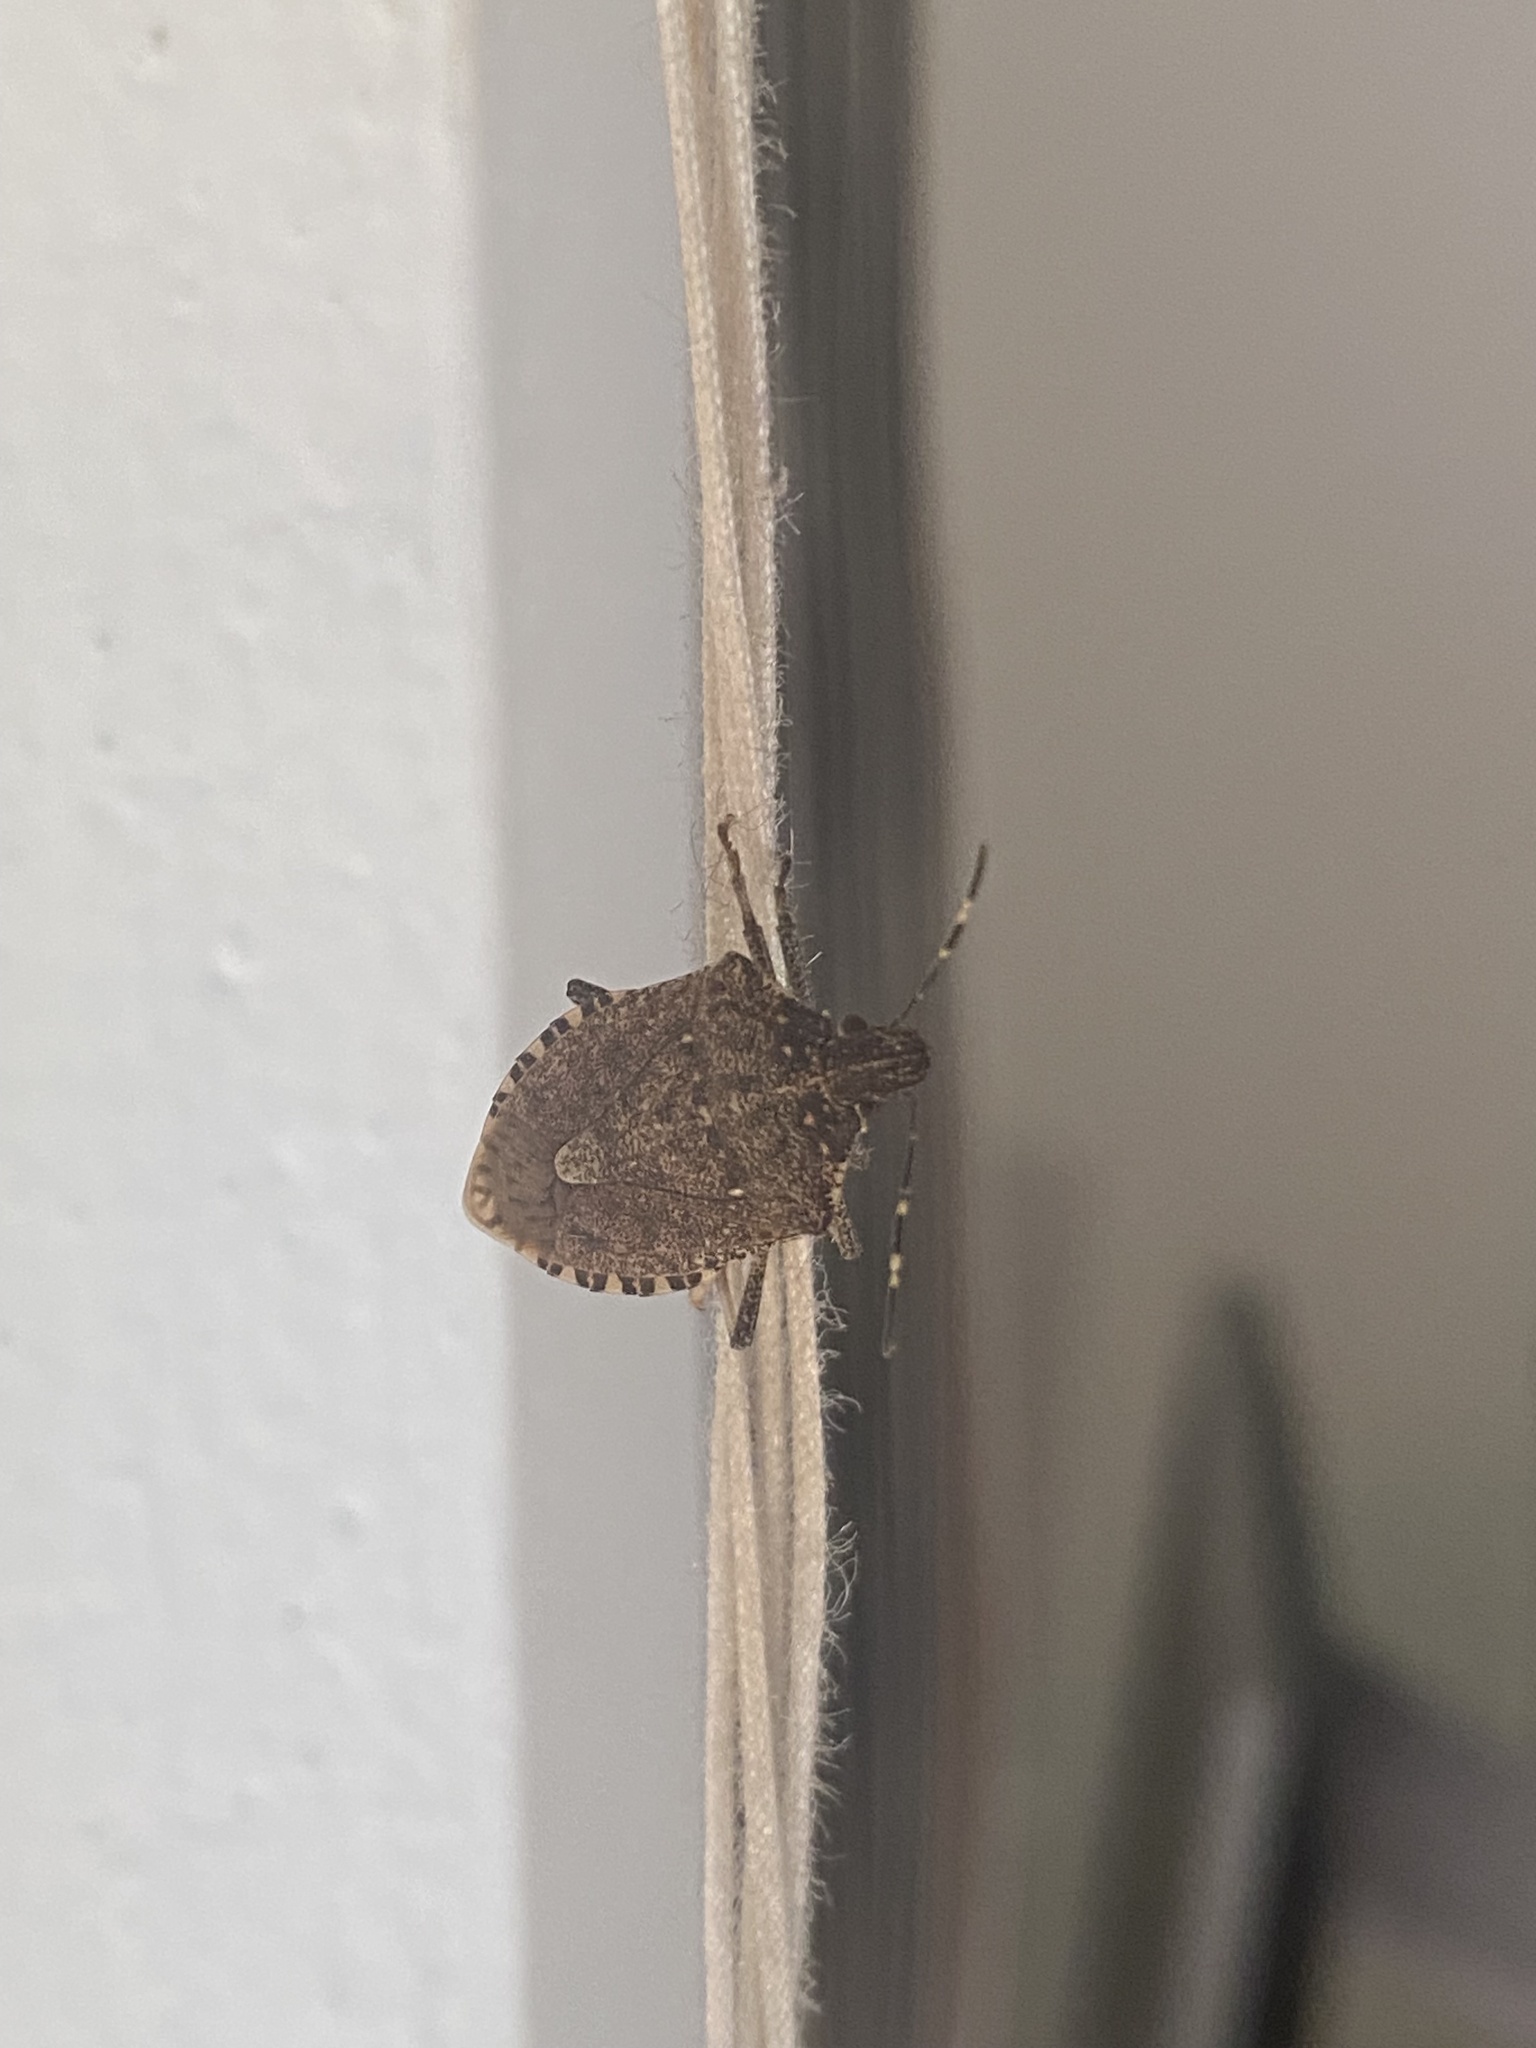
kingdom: Animalia
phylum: Arthropoda
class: Insecta
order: Hemiptera
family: Pentatomidae
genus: Halyomorpha
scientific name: Halyomorpha halys
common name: Brown marmorated stink bug
